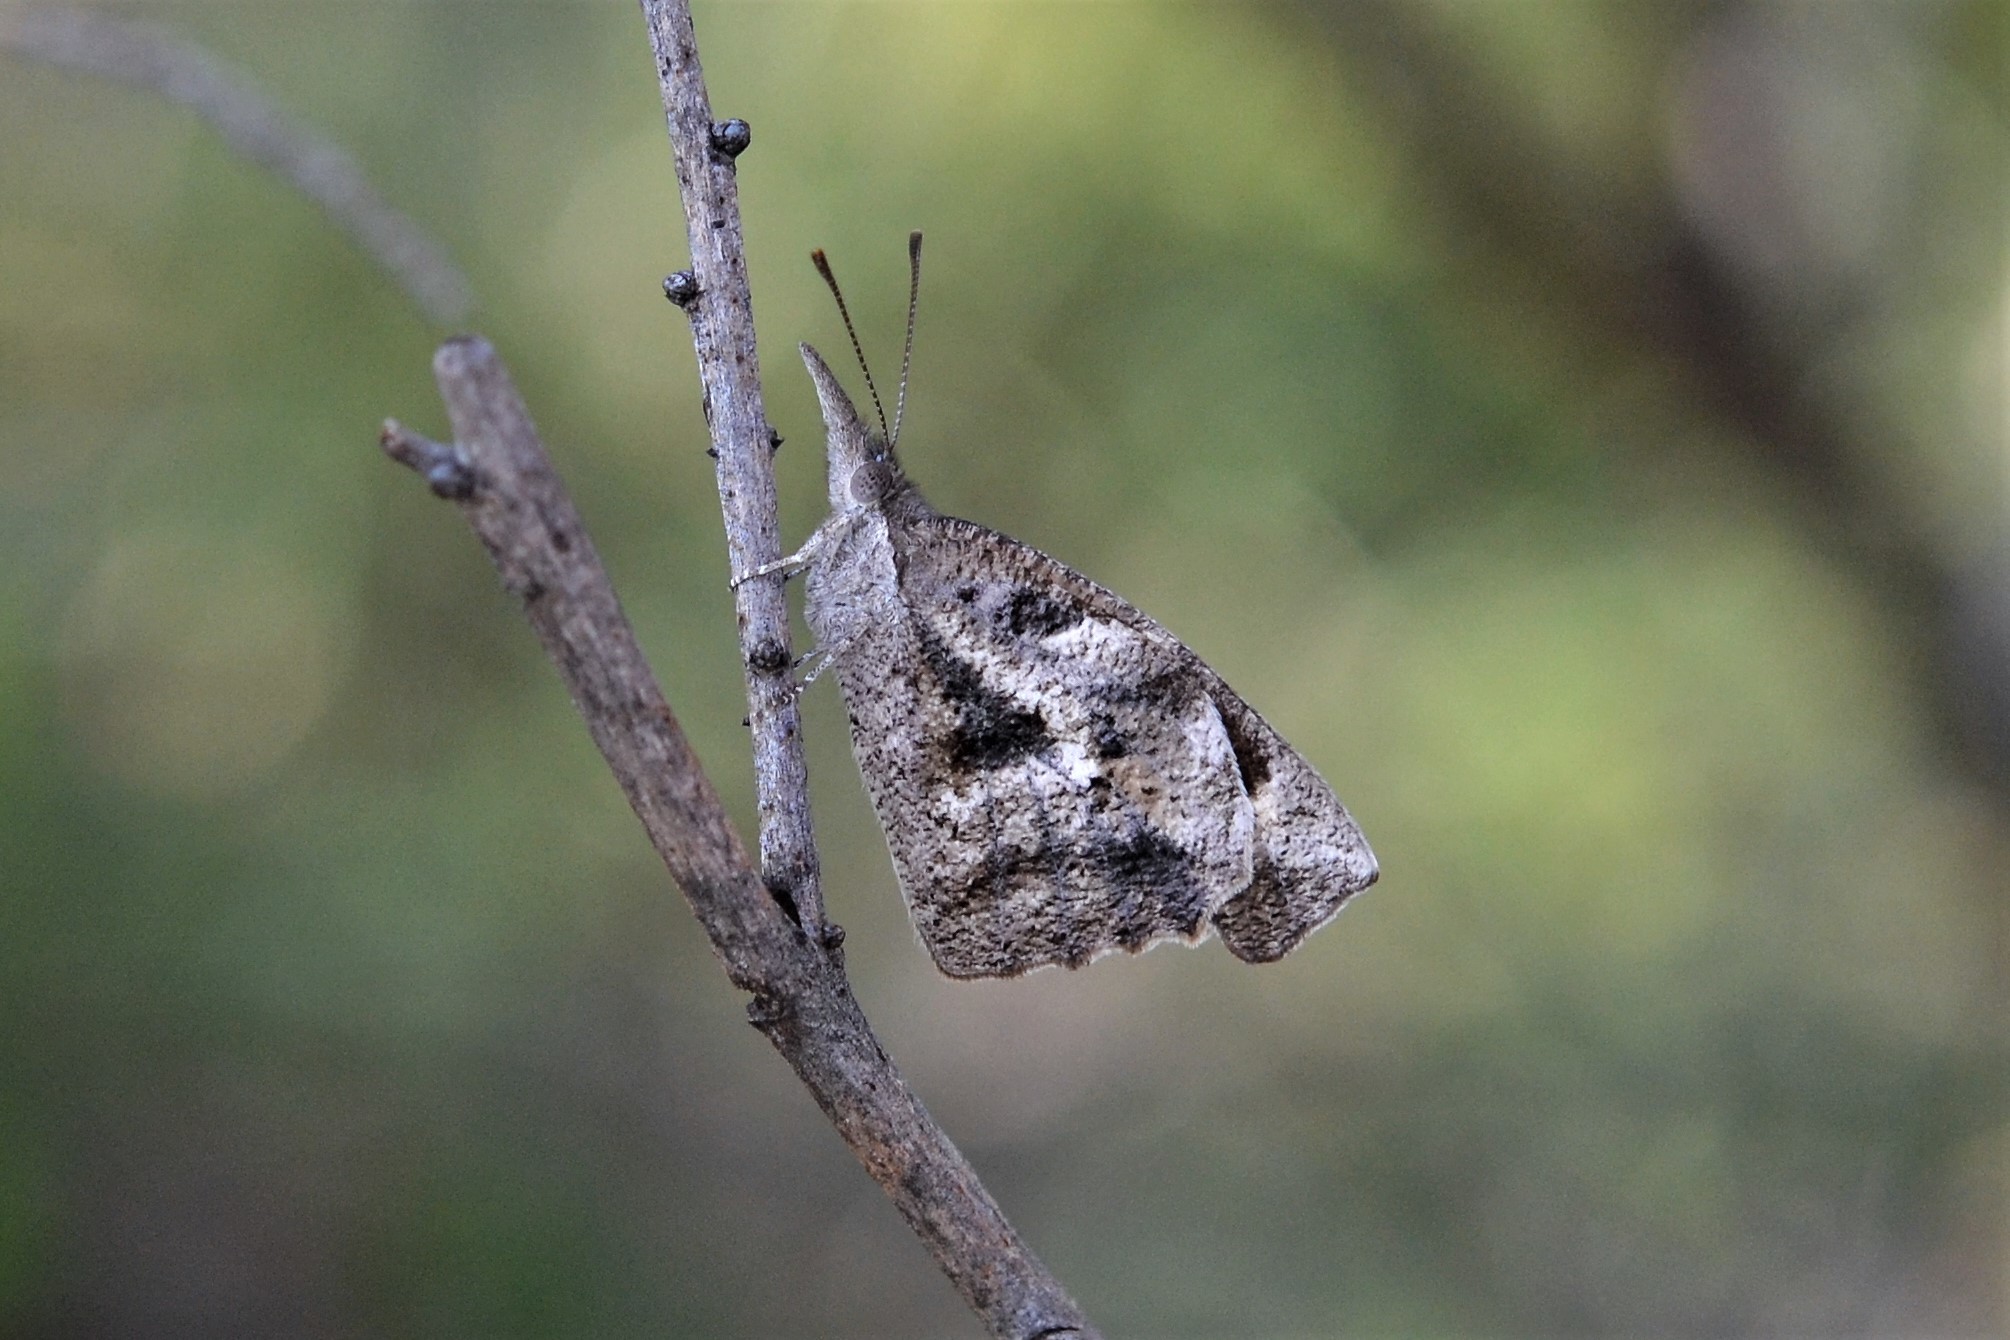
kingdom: Animalia
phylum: Arthropoda
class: Insecta
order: Lepidoptera
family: Nymphalidae
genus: Libytheana
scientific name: Libytheana carinenta
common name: American snout
